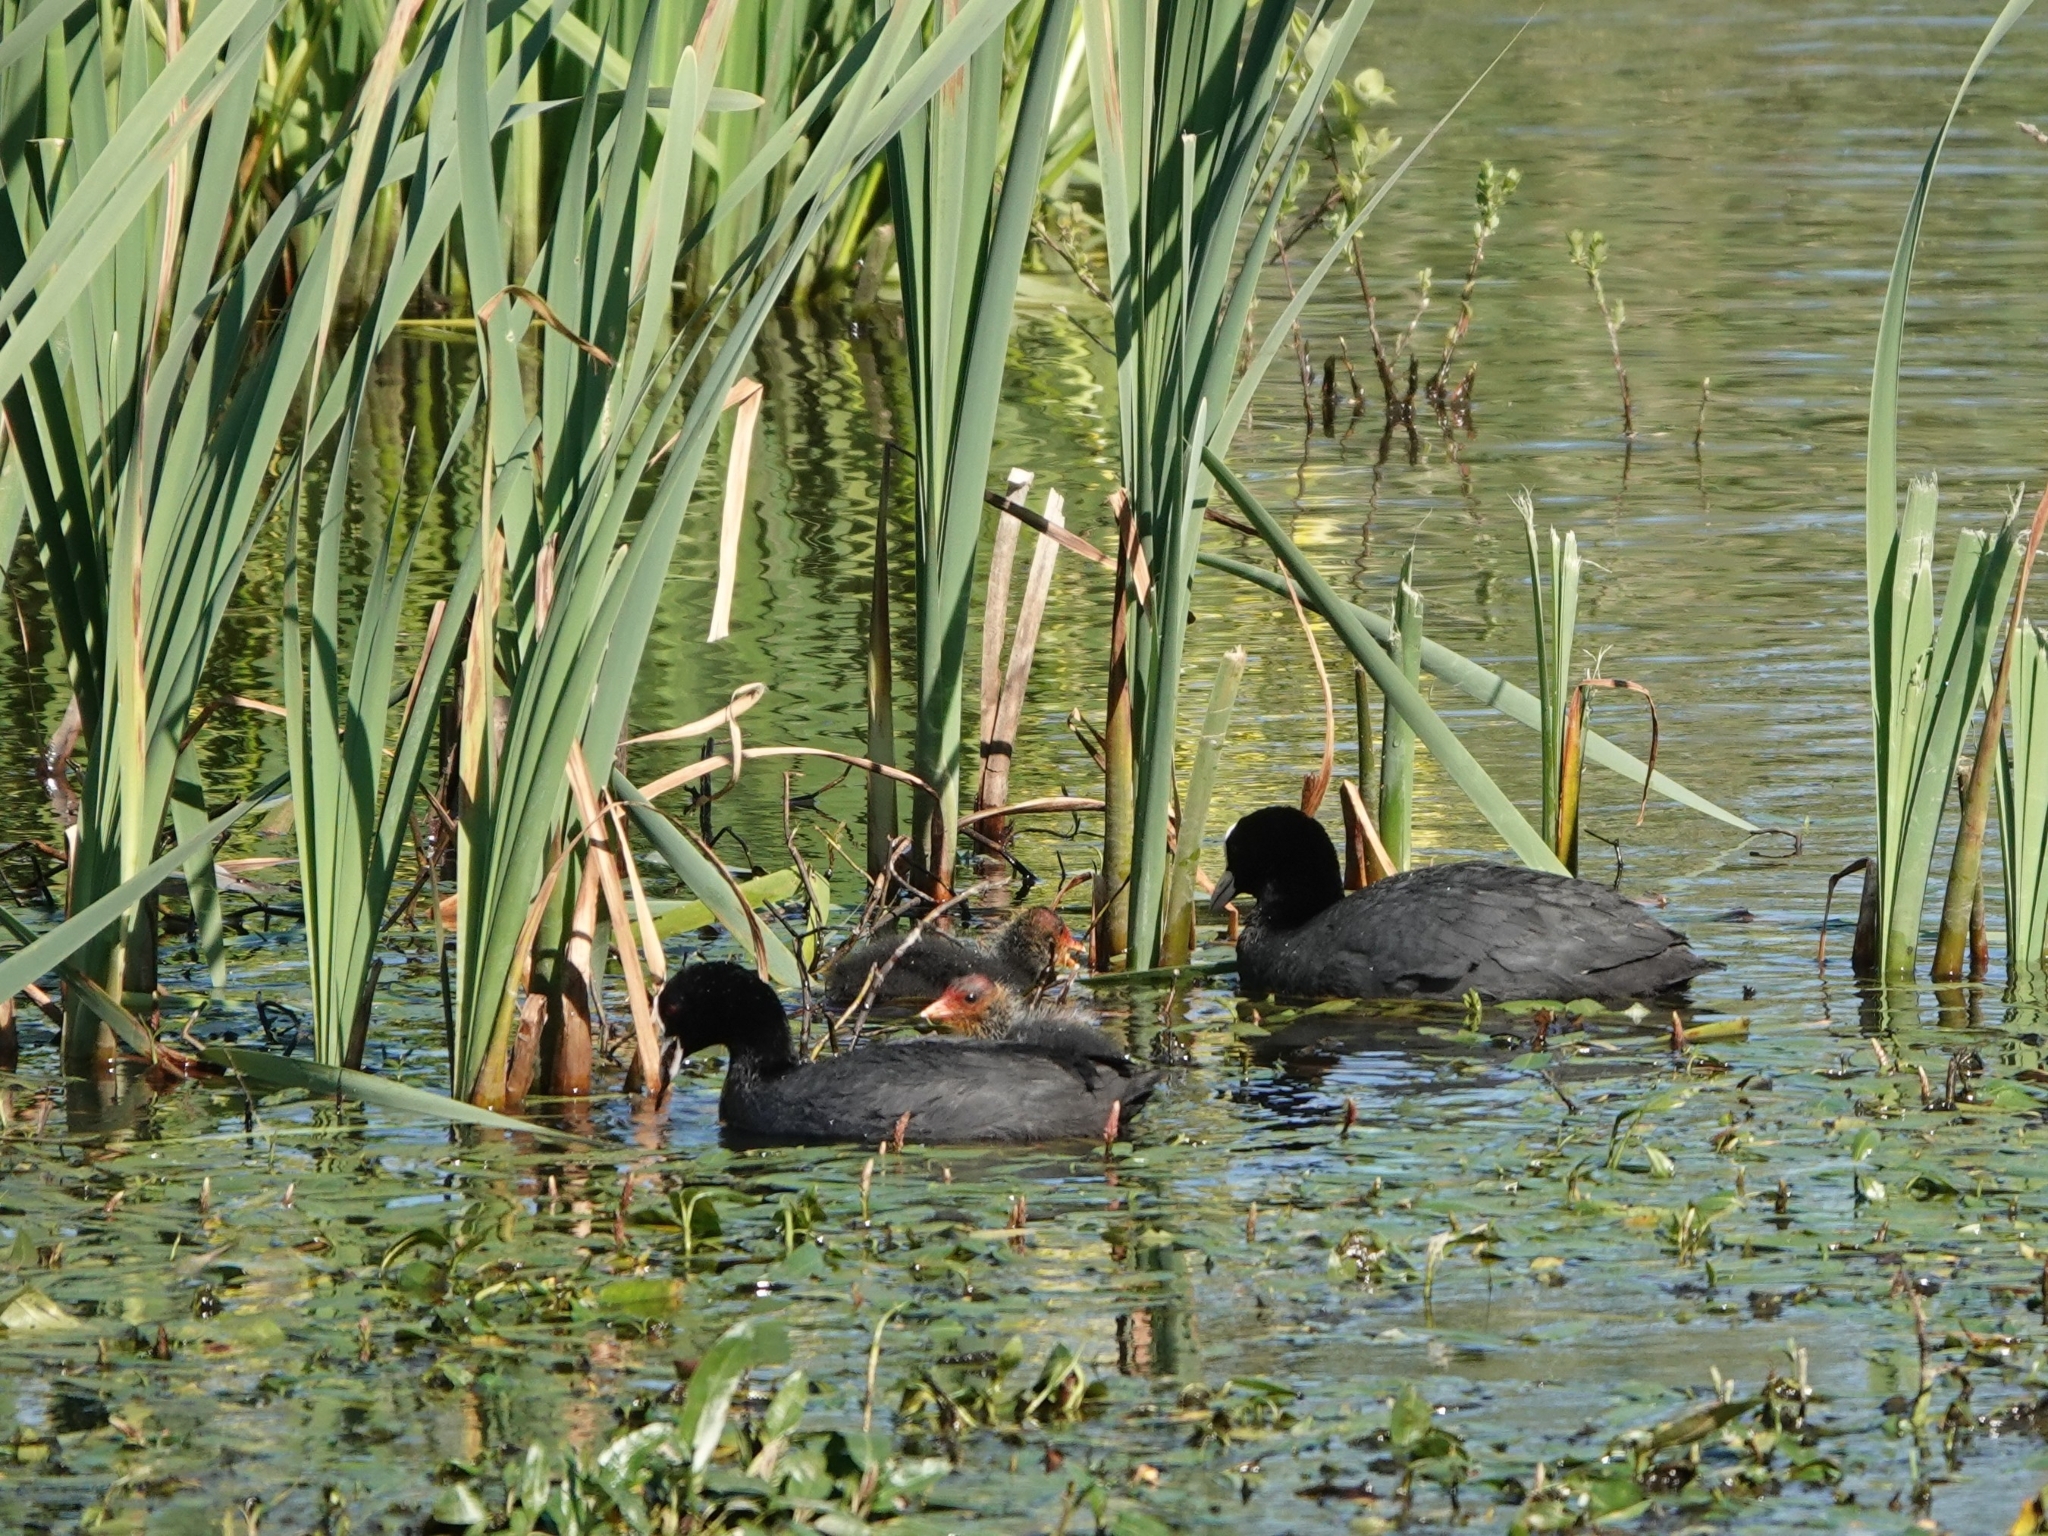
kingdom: Animalia
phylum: Chordata
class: Aves
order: Gruiformes
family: Rallidae
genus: Fulica
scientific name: Fulica atra
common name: Eurasian coot
